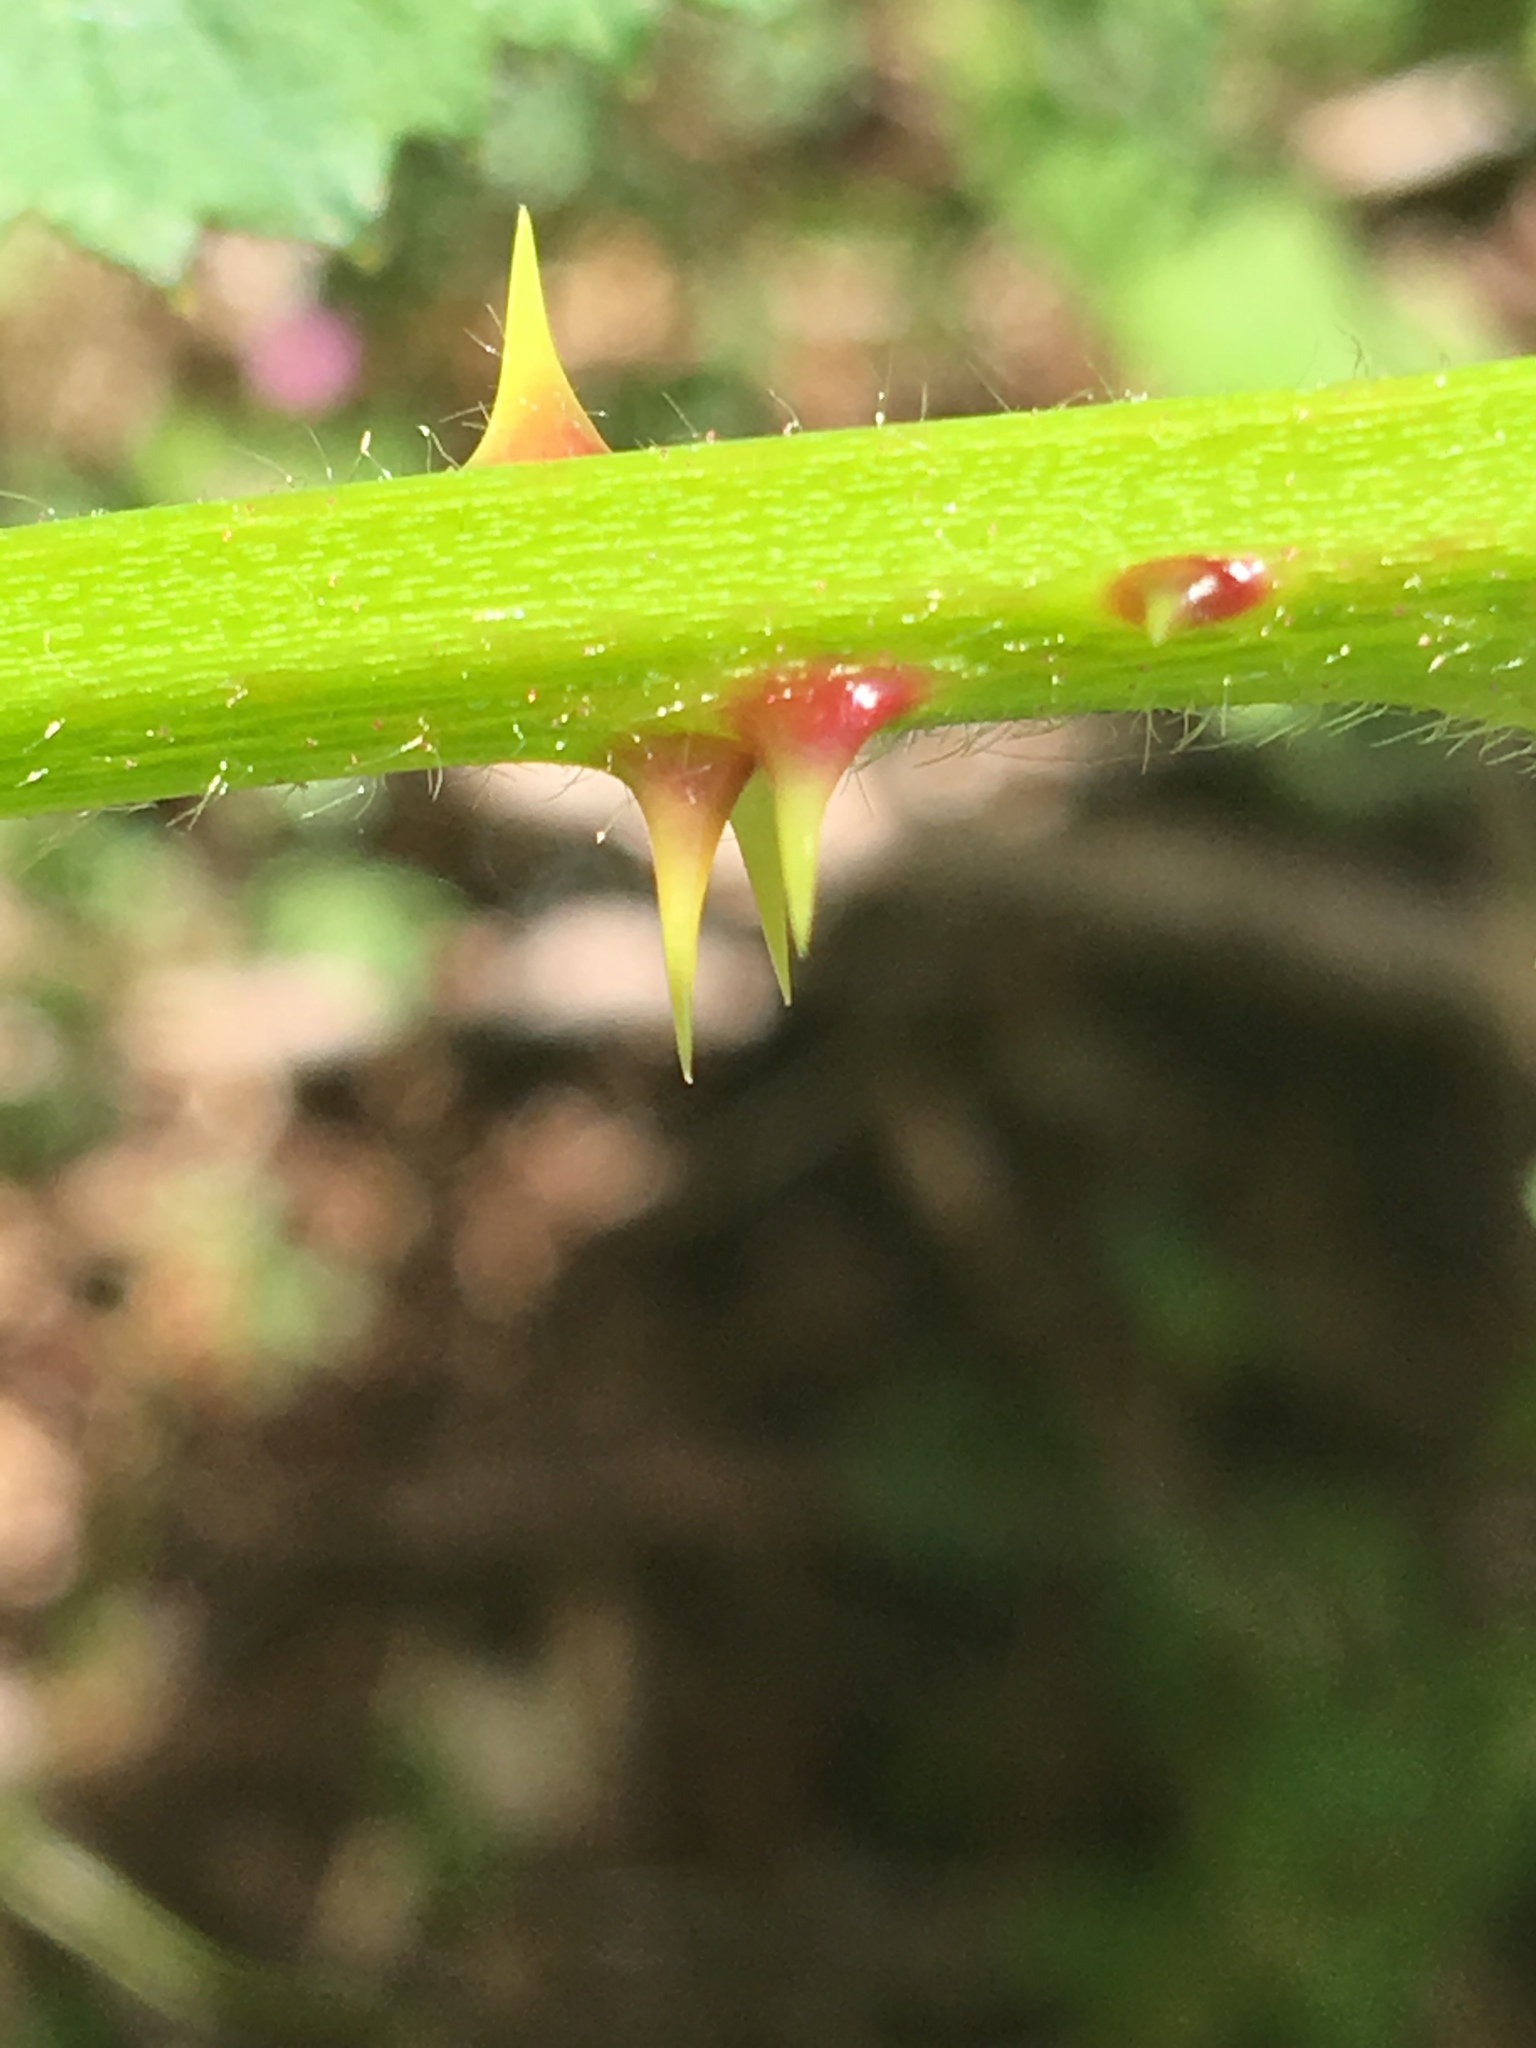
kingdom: Plantae
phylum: Tracheophyta
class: Magnoliopsida
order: Rosales
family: Rosaceae
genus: Rubus
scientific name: Rubus vestitus
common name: European blackberry
